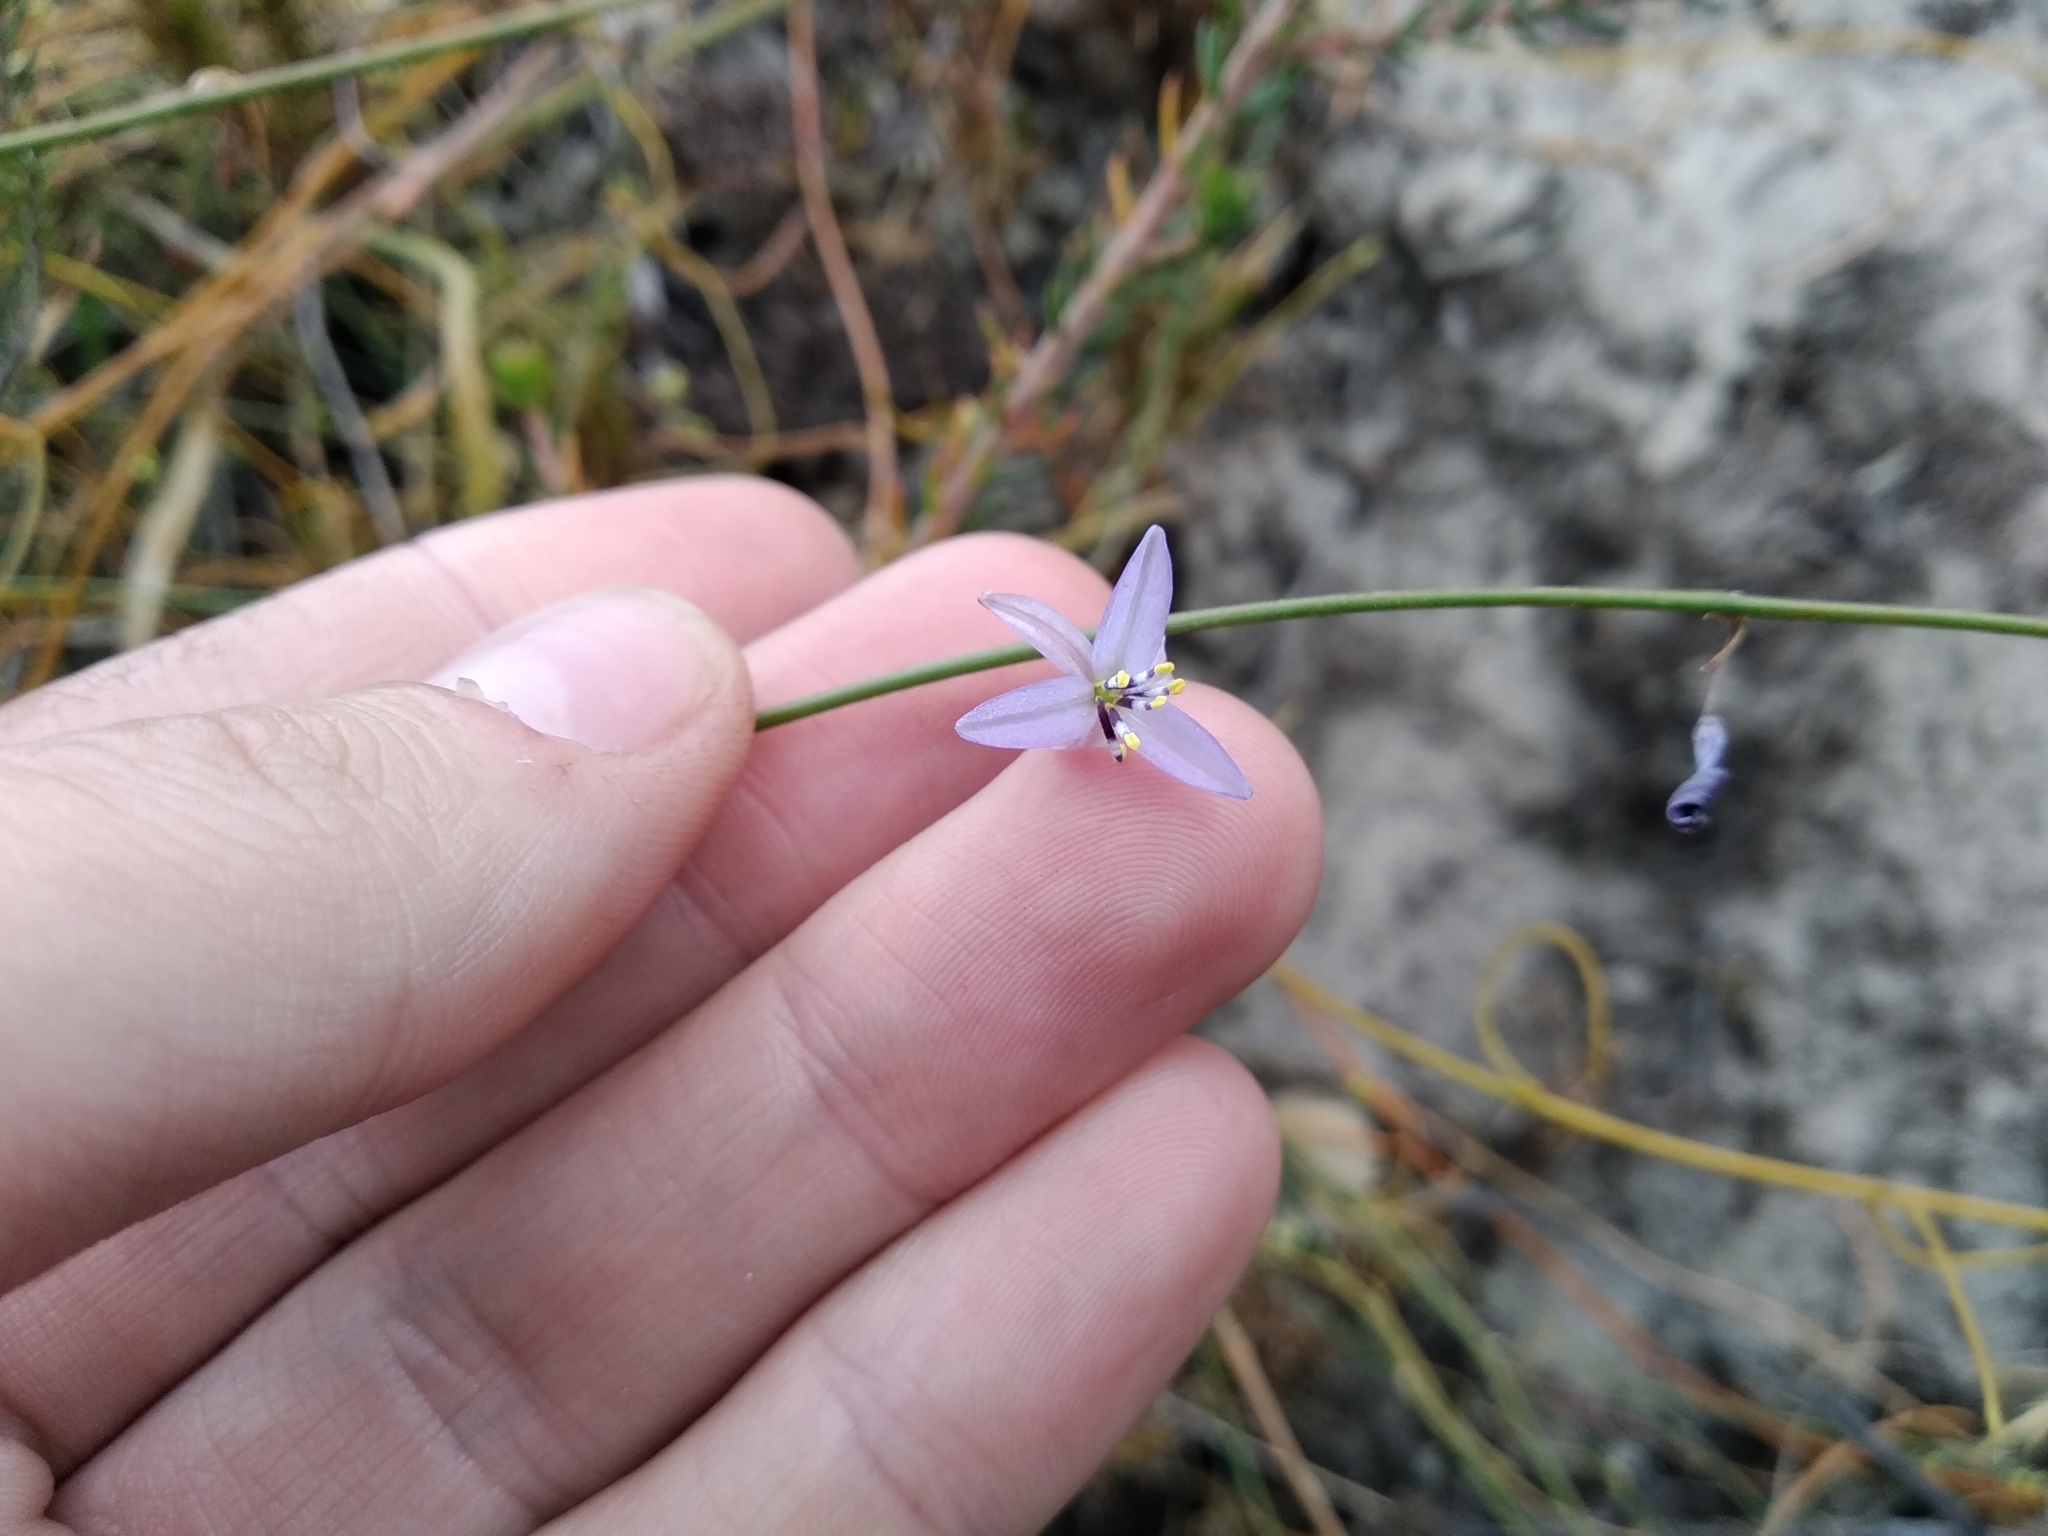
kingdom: Plantae
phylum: Tracheophyta
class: Liliopsida
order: Asparagales
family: Asphodelaceae
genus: Caesia
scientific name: Caesia contorta
